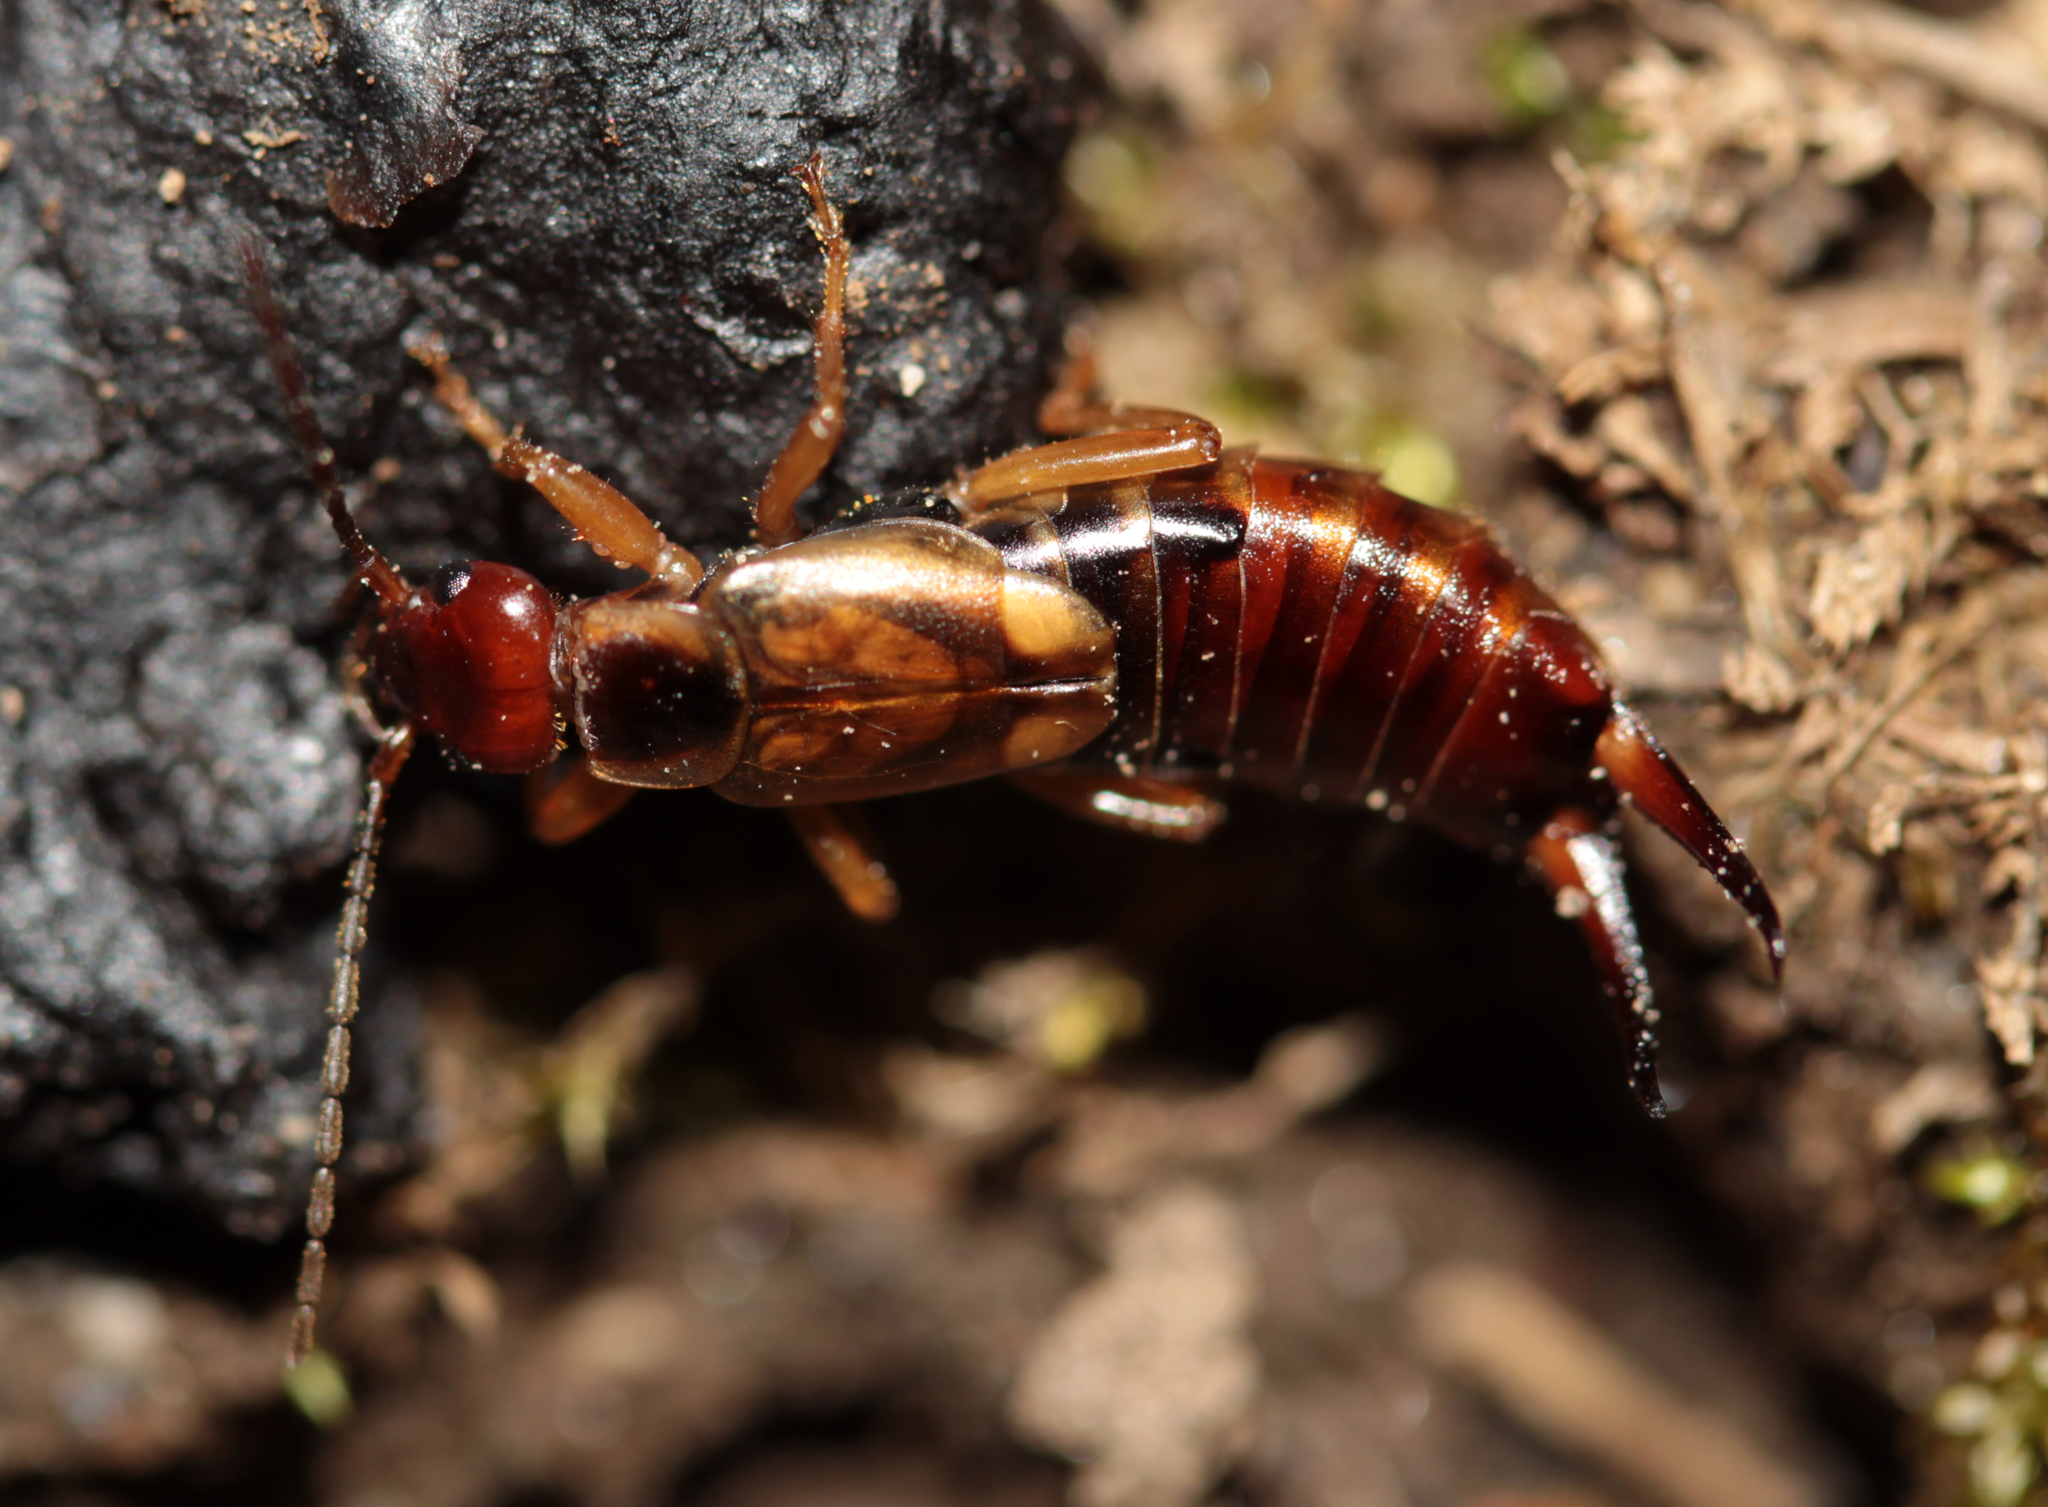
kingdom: Animalia
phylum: Arthropoda
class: Insecta
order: Dermaptera
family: Forficulidae
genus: Forficula
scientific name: Forficula
